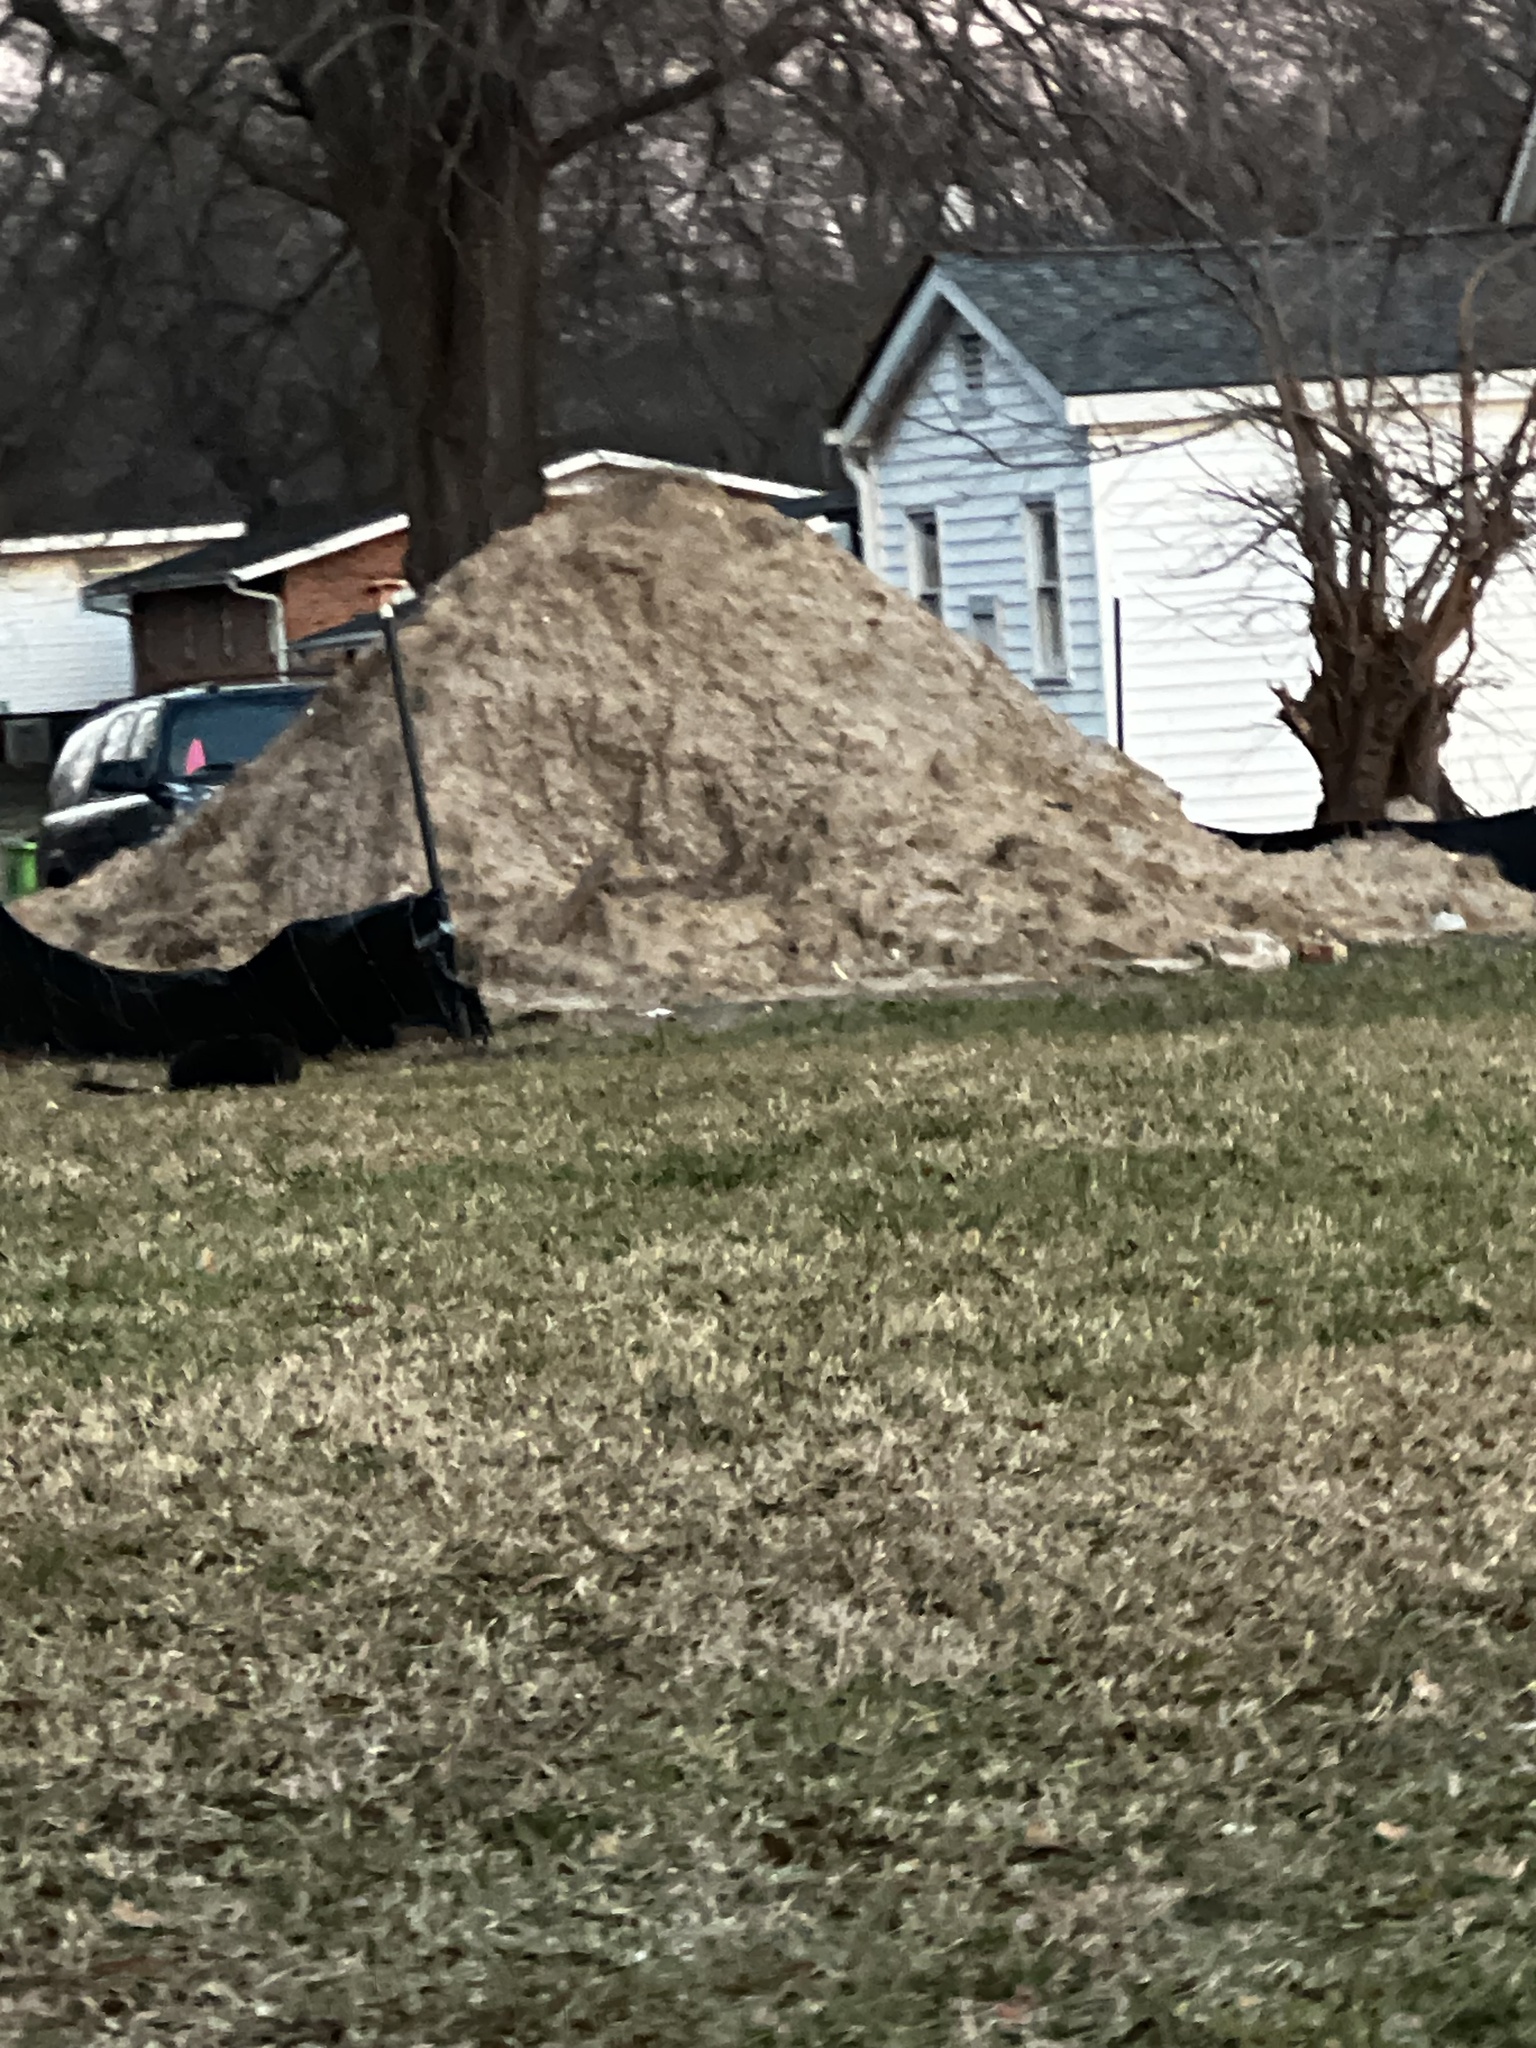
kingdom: Animalia
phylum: Chordata
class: Mammalia
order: Carnivora
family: Felidae
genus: Felis
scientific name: Felis catus
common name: Domestic cat
